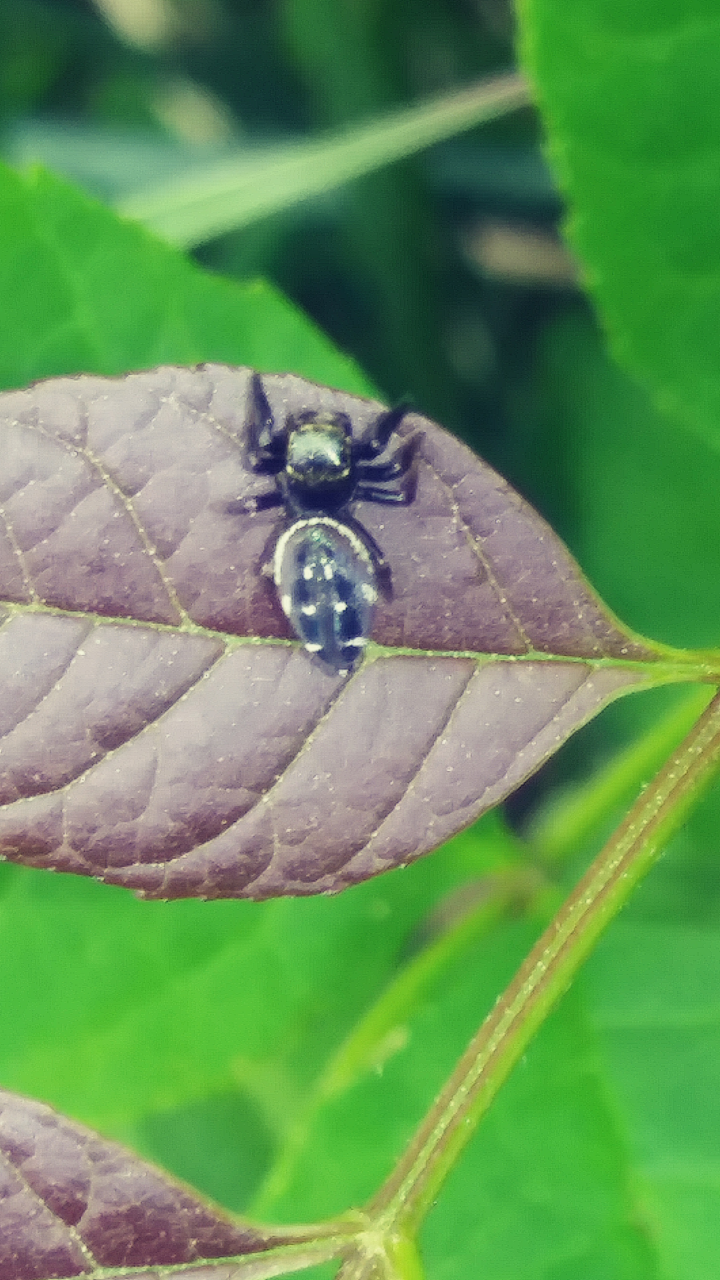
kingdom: Animalia
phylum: Arthropoda
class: Arachnida
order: Araneae
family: Salticidae
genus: Paraphidippus
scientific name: Paraphidippus aurantius
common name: Jumping spiders
